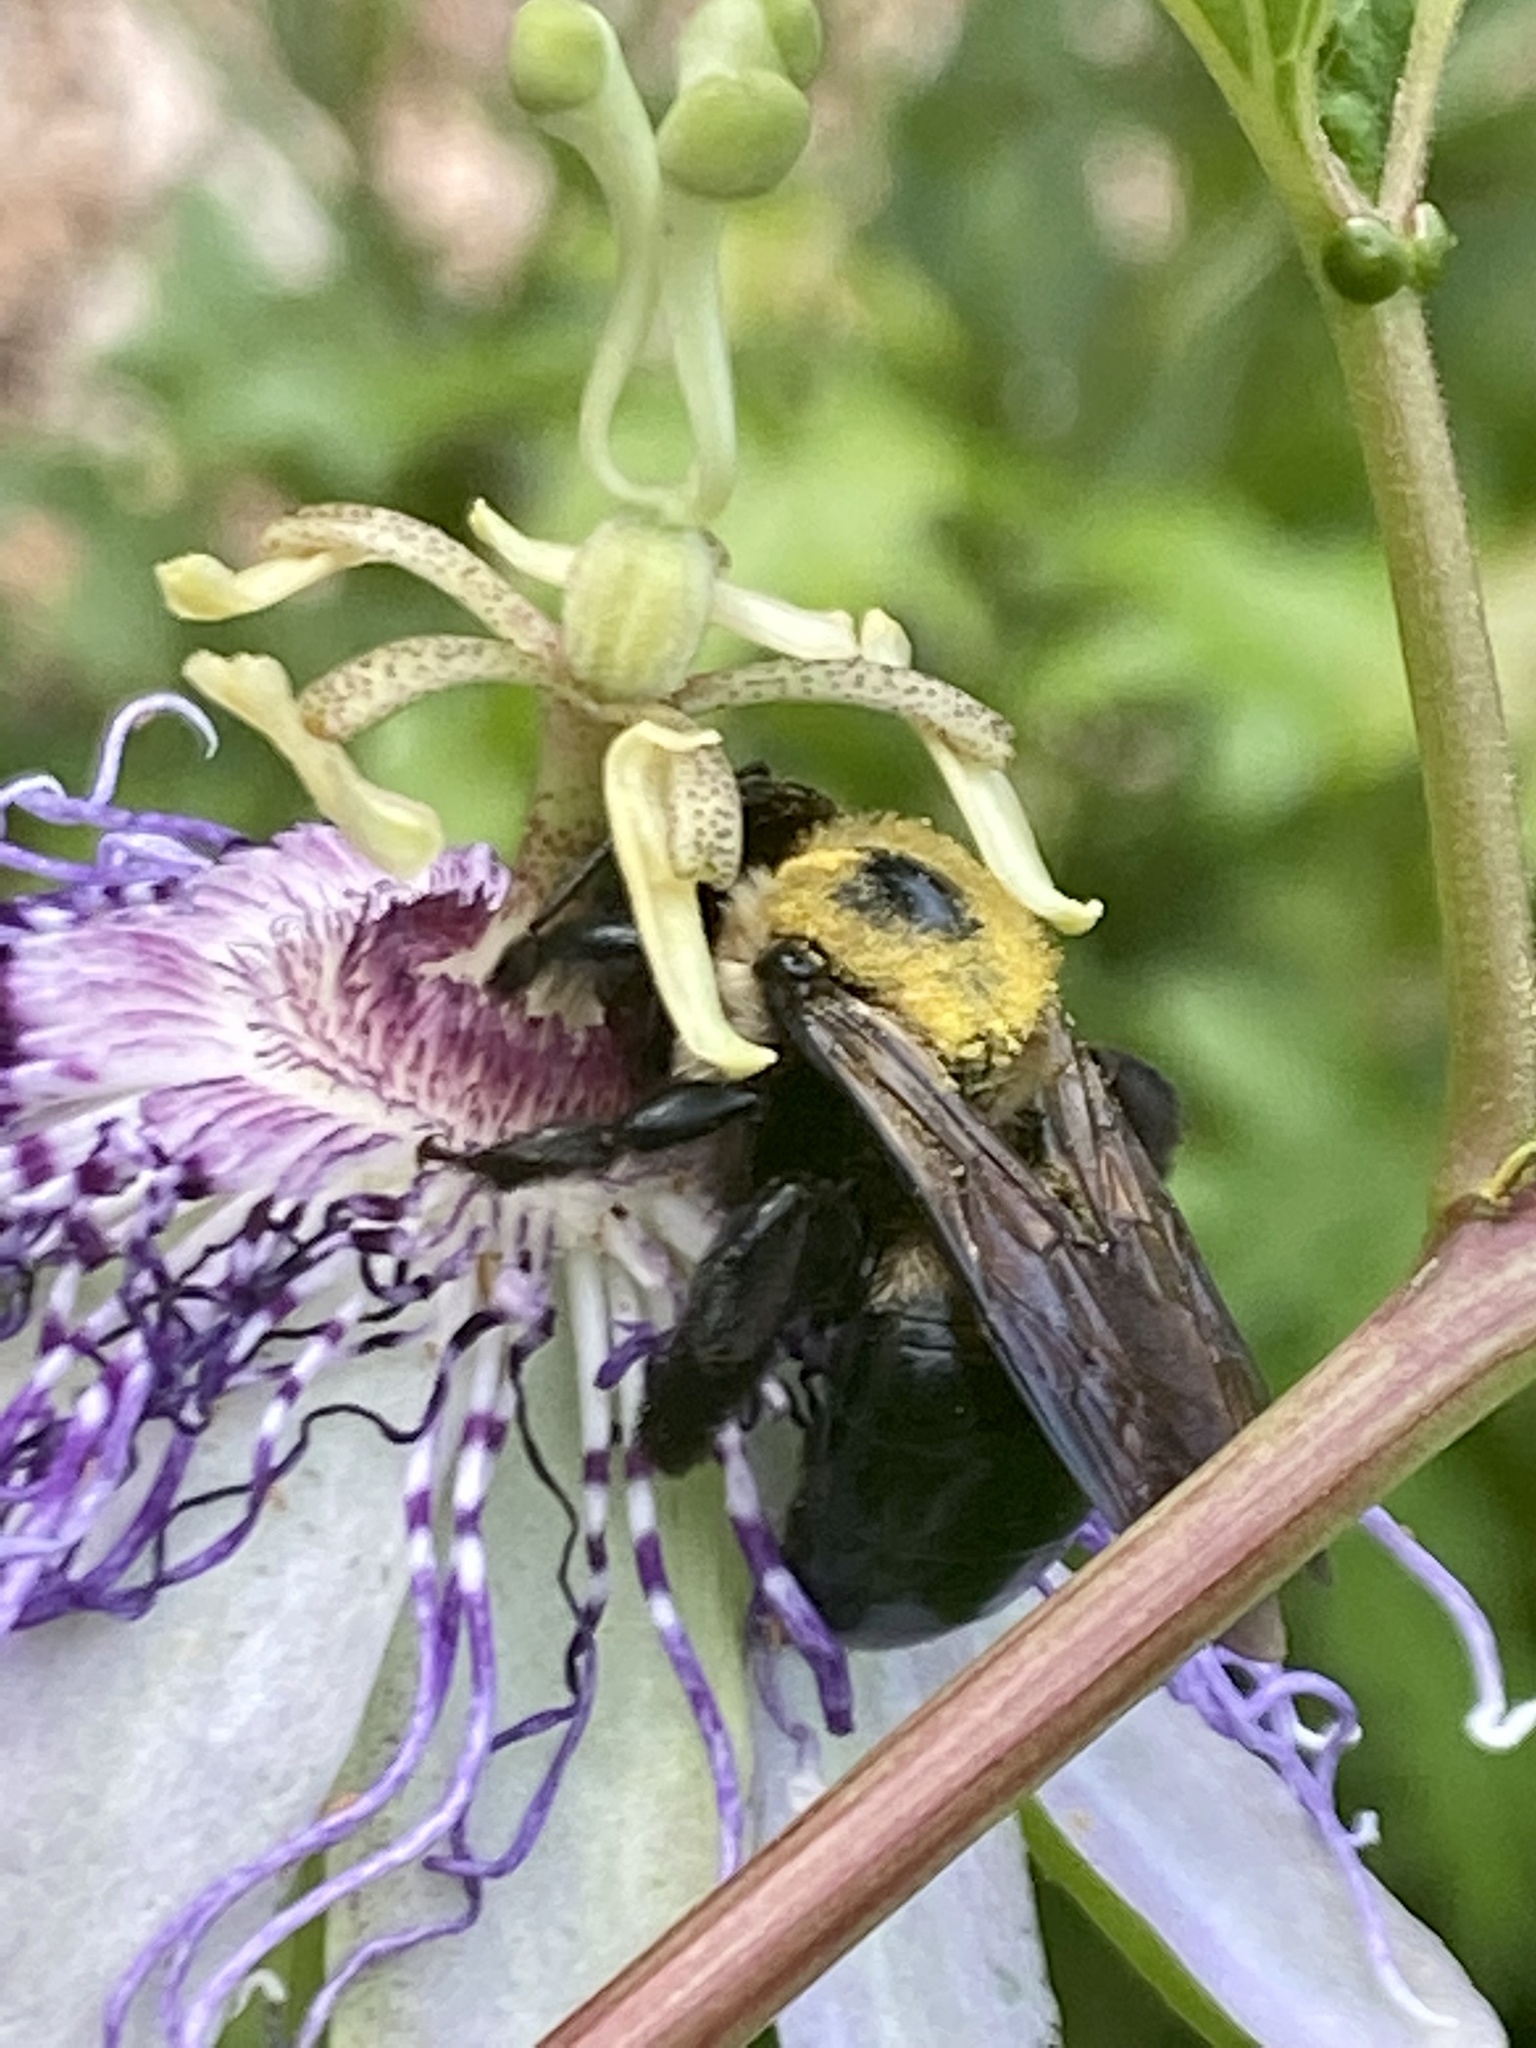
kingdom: Animalia
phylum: Arthropoda
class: Insecta
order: Hymenoptera
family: Apidae
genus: Xylocopa
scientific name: Xylocopa virginica
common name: Carpenter bee
